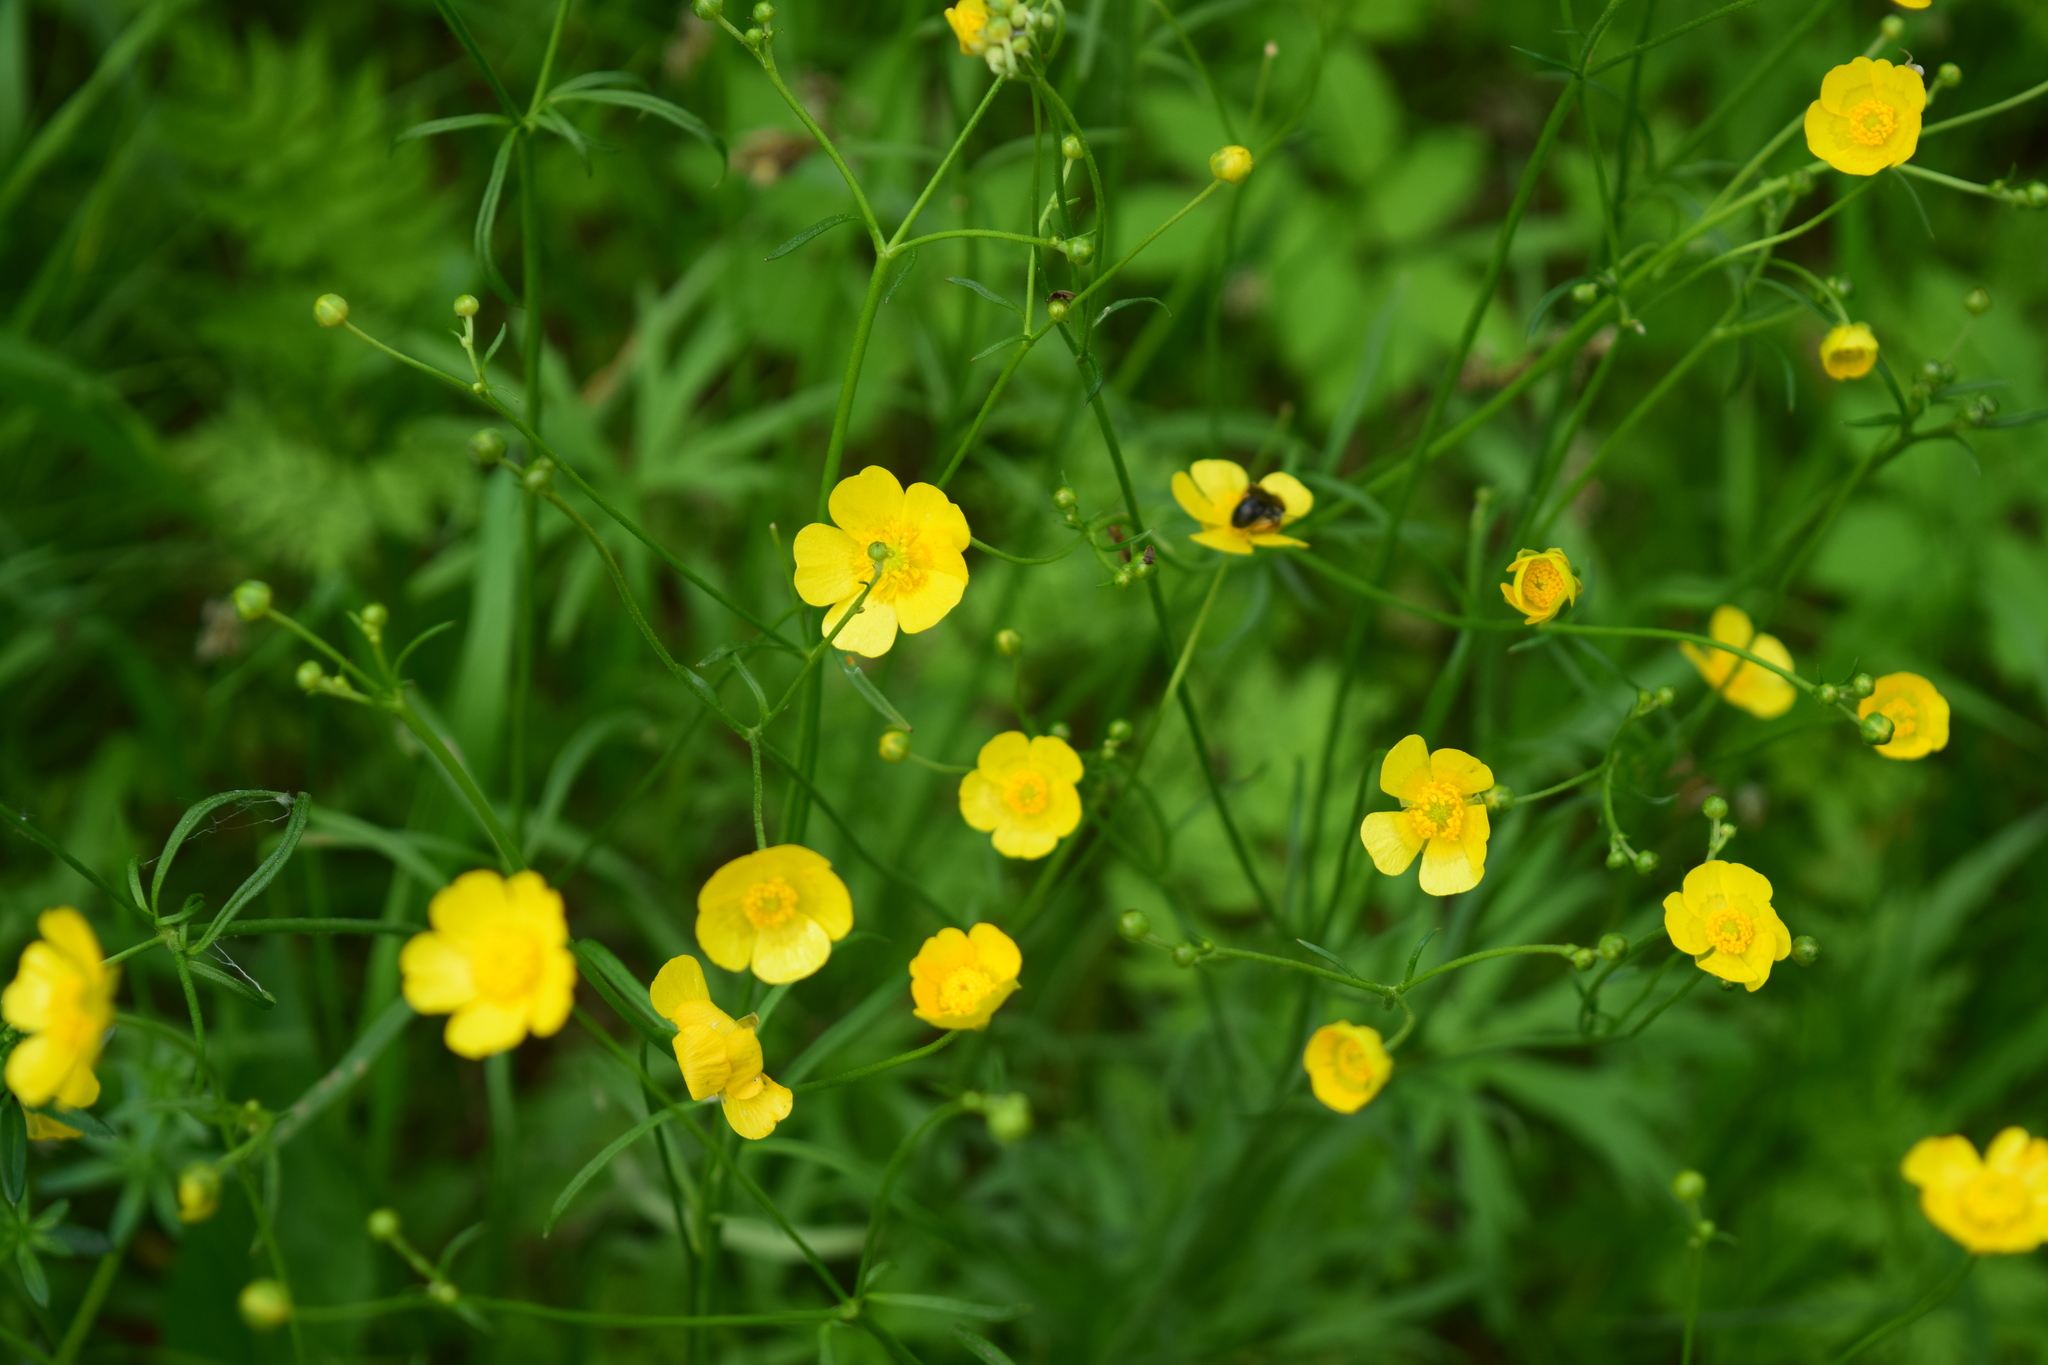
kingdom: Plantae
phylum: Tracheophyta
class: Magnoliopsida
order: Ranunculales
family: Ranunculaceae
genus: Ranunculus
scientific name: Ranunculus acris
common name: Meadow buttercup
